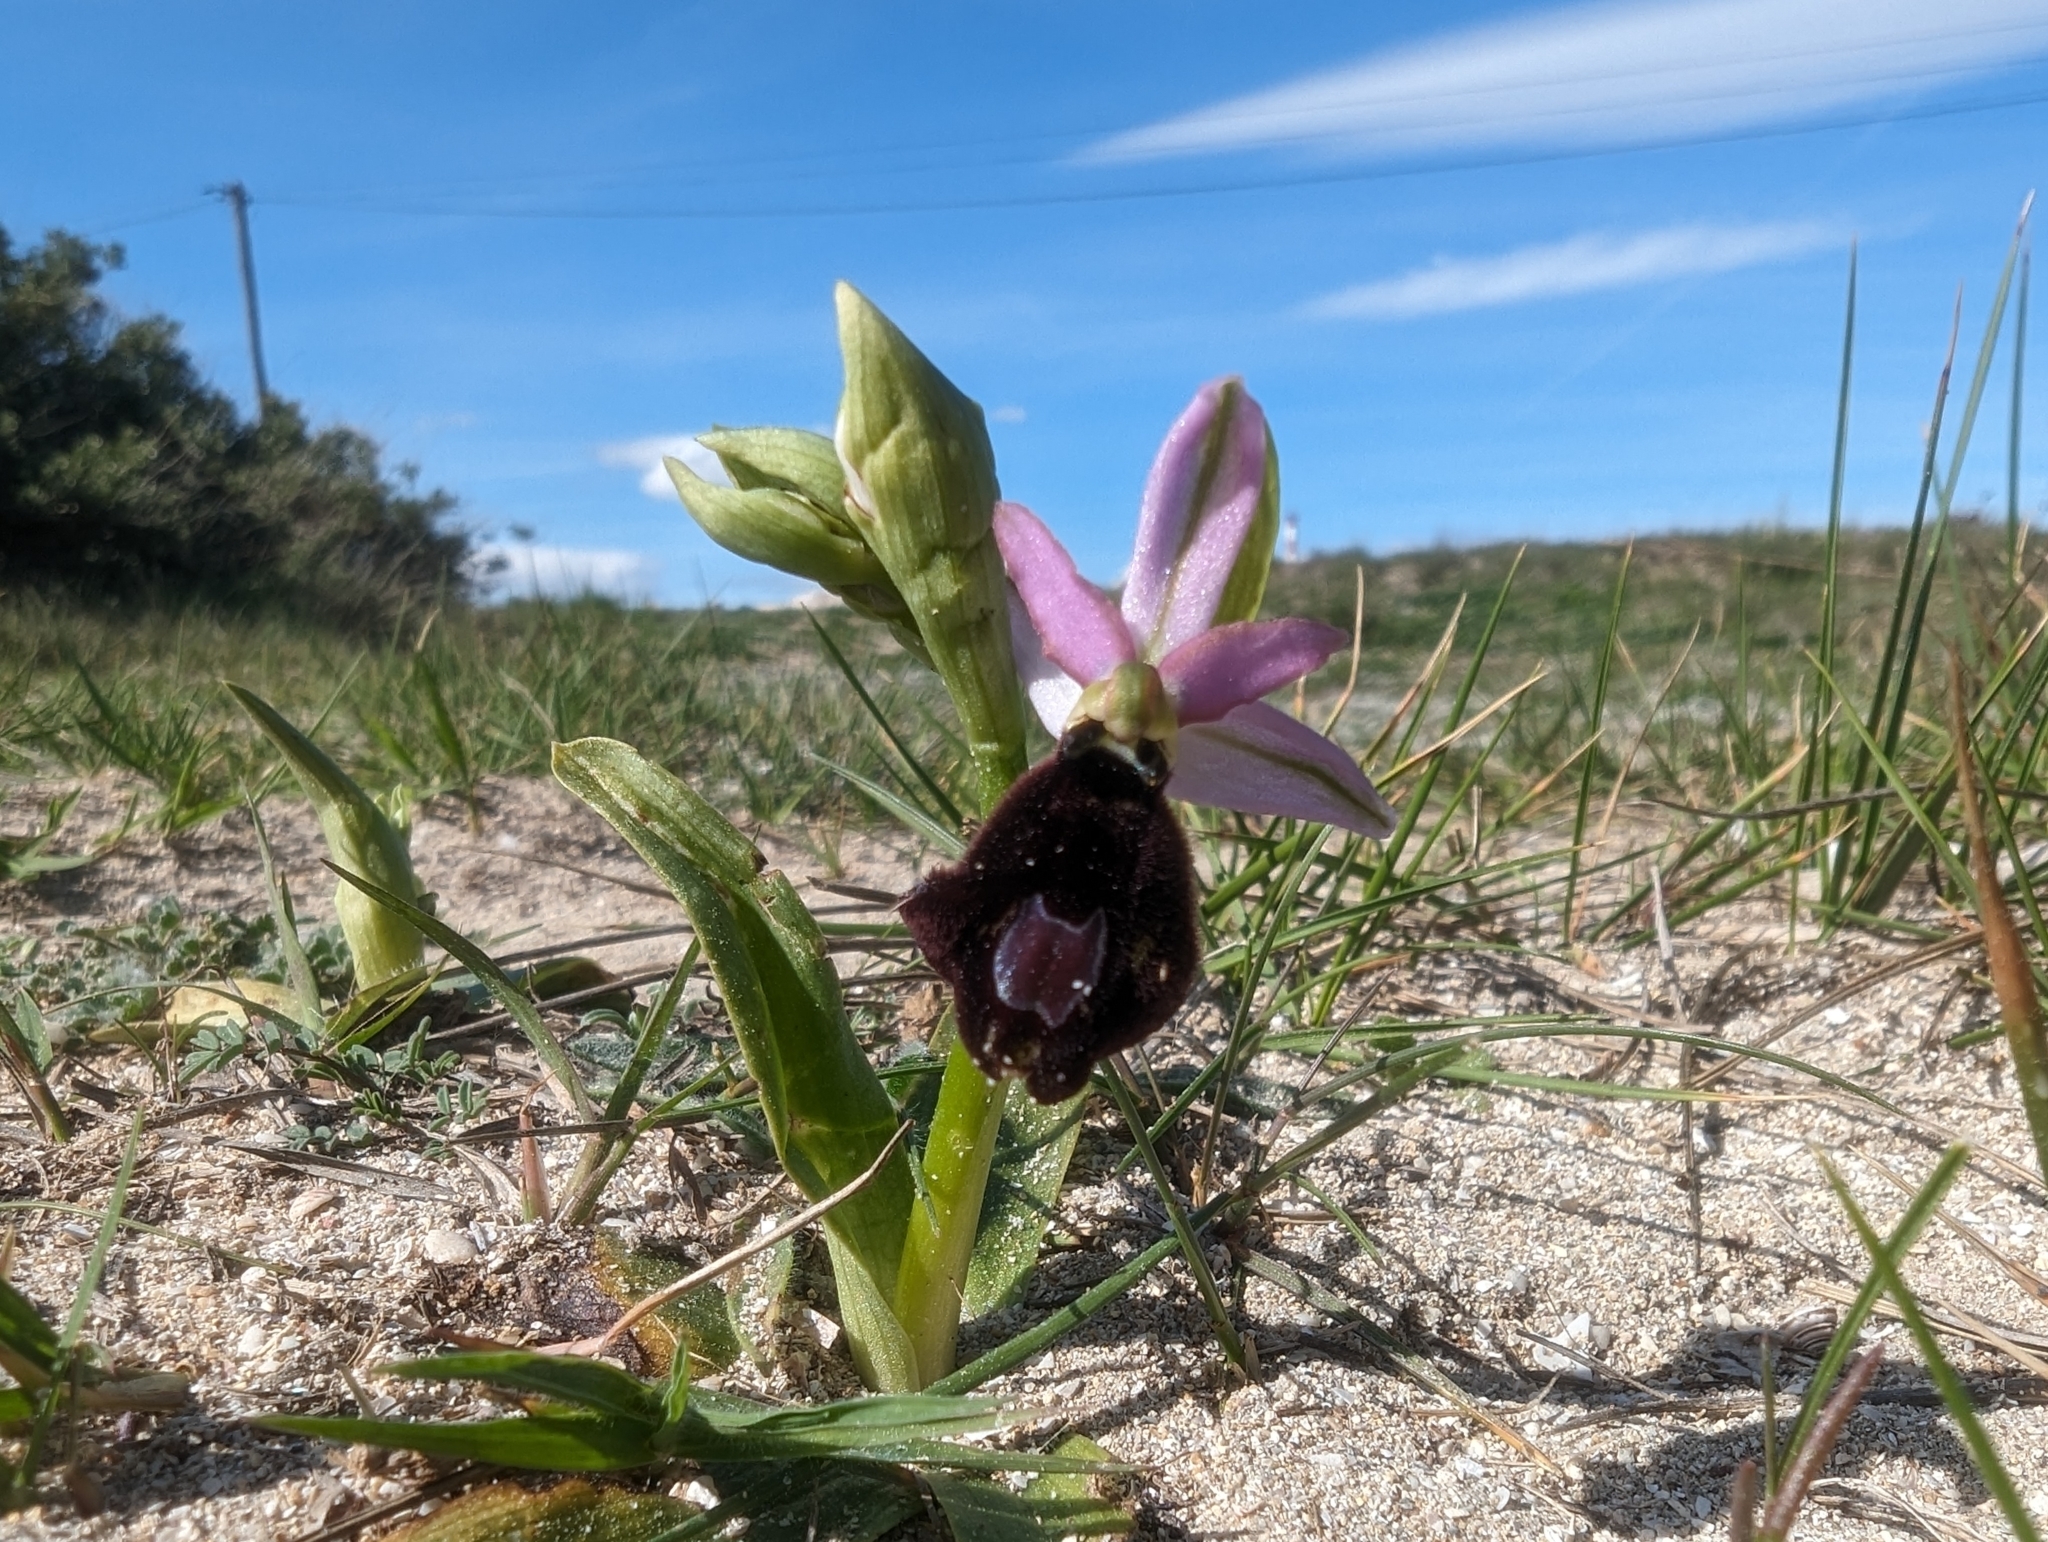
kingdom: Plantae
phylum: Tracheophyta
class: Liliopsida
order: Asparagales
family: Orchidaceae
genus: Ophrys
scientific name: Ophrys flavicans
